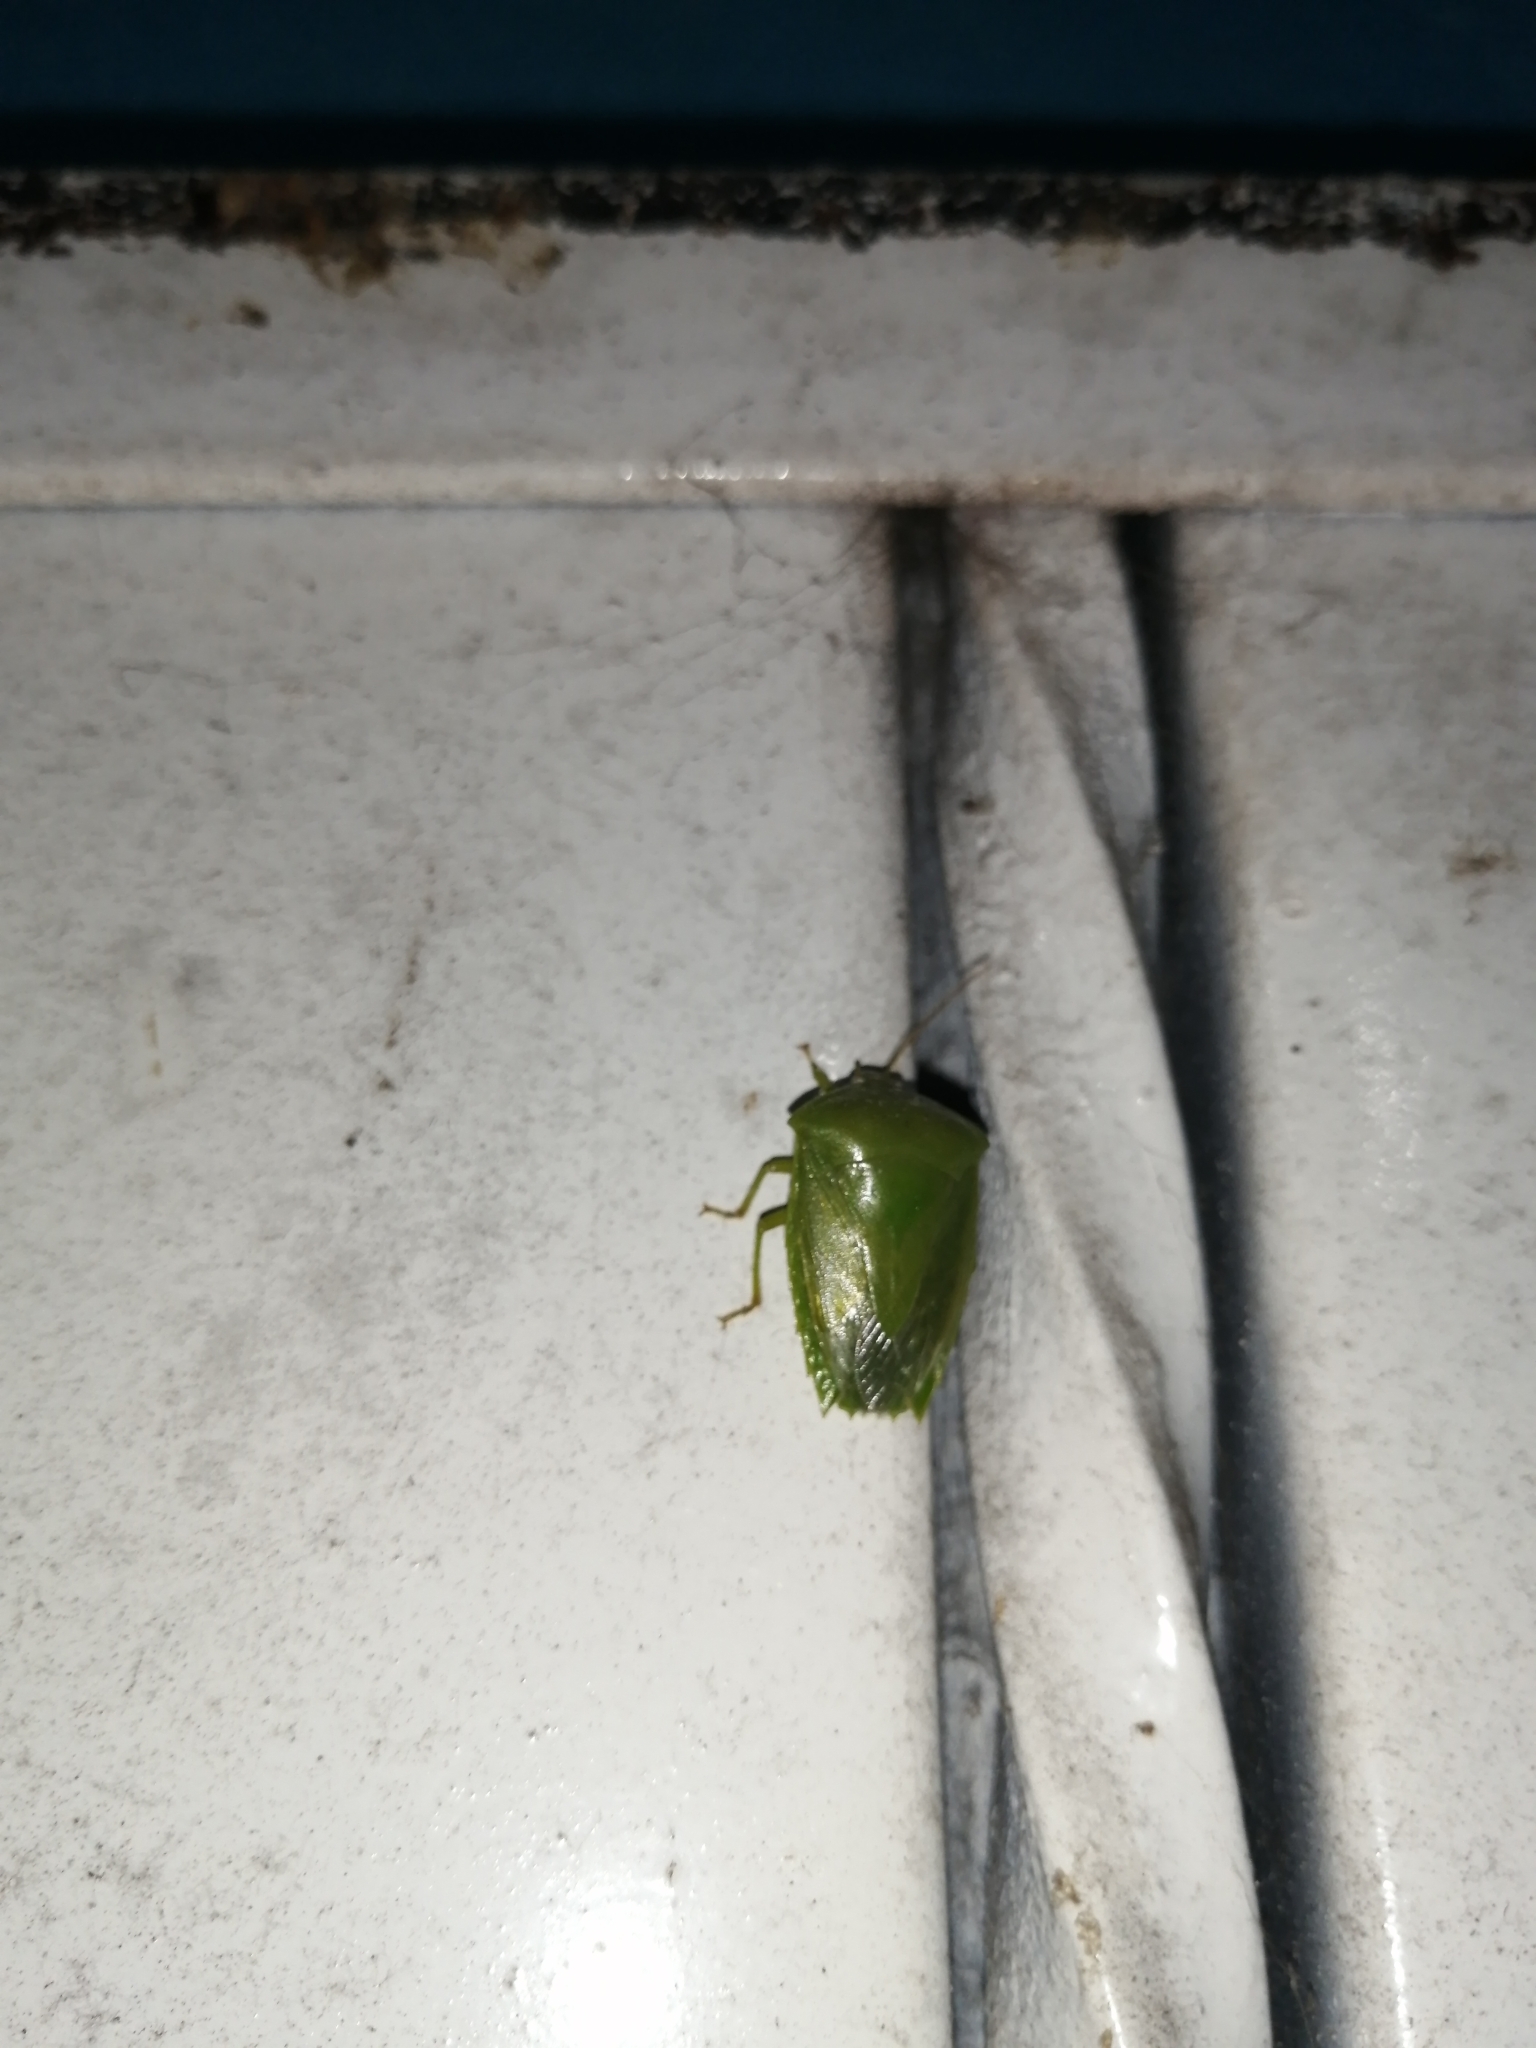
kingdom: Animalia
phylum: Arthropoda
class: Insecta
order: Hemiptera
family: Pentatomidae
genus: Pantochlora
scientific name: Pantochlora vivida
